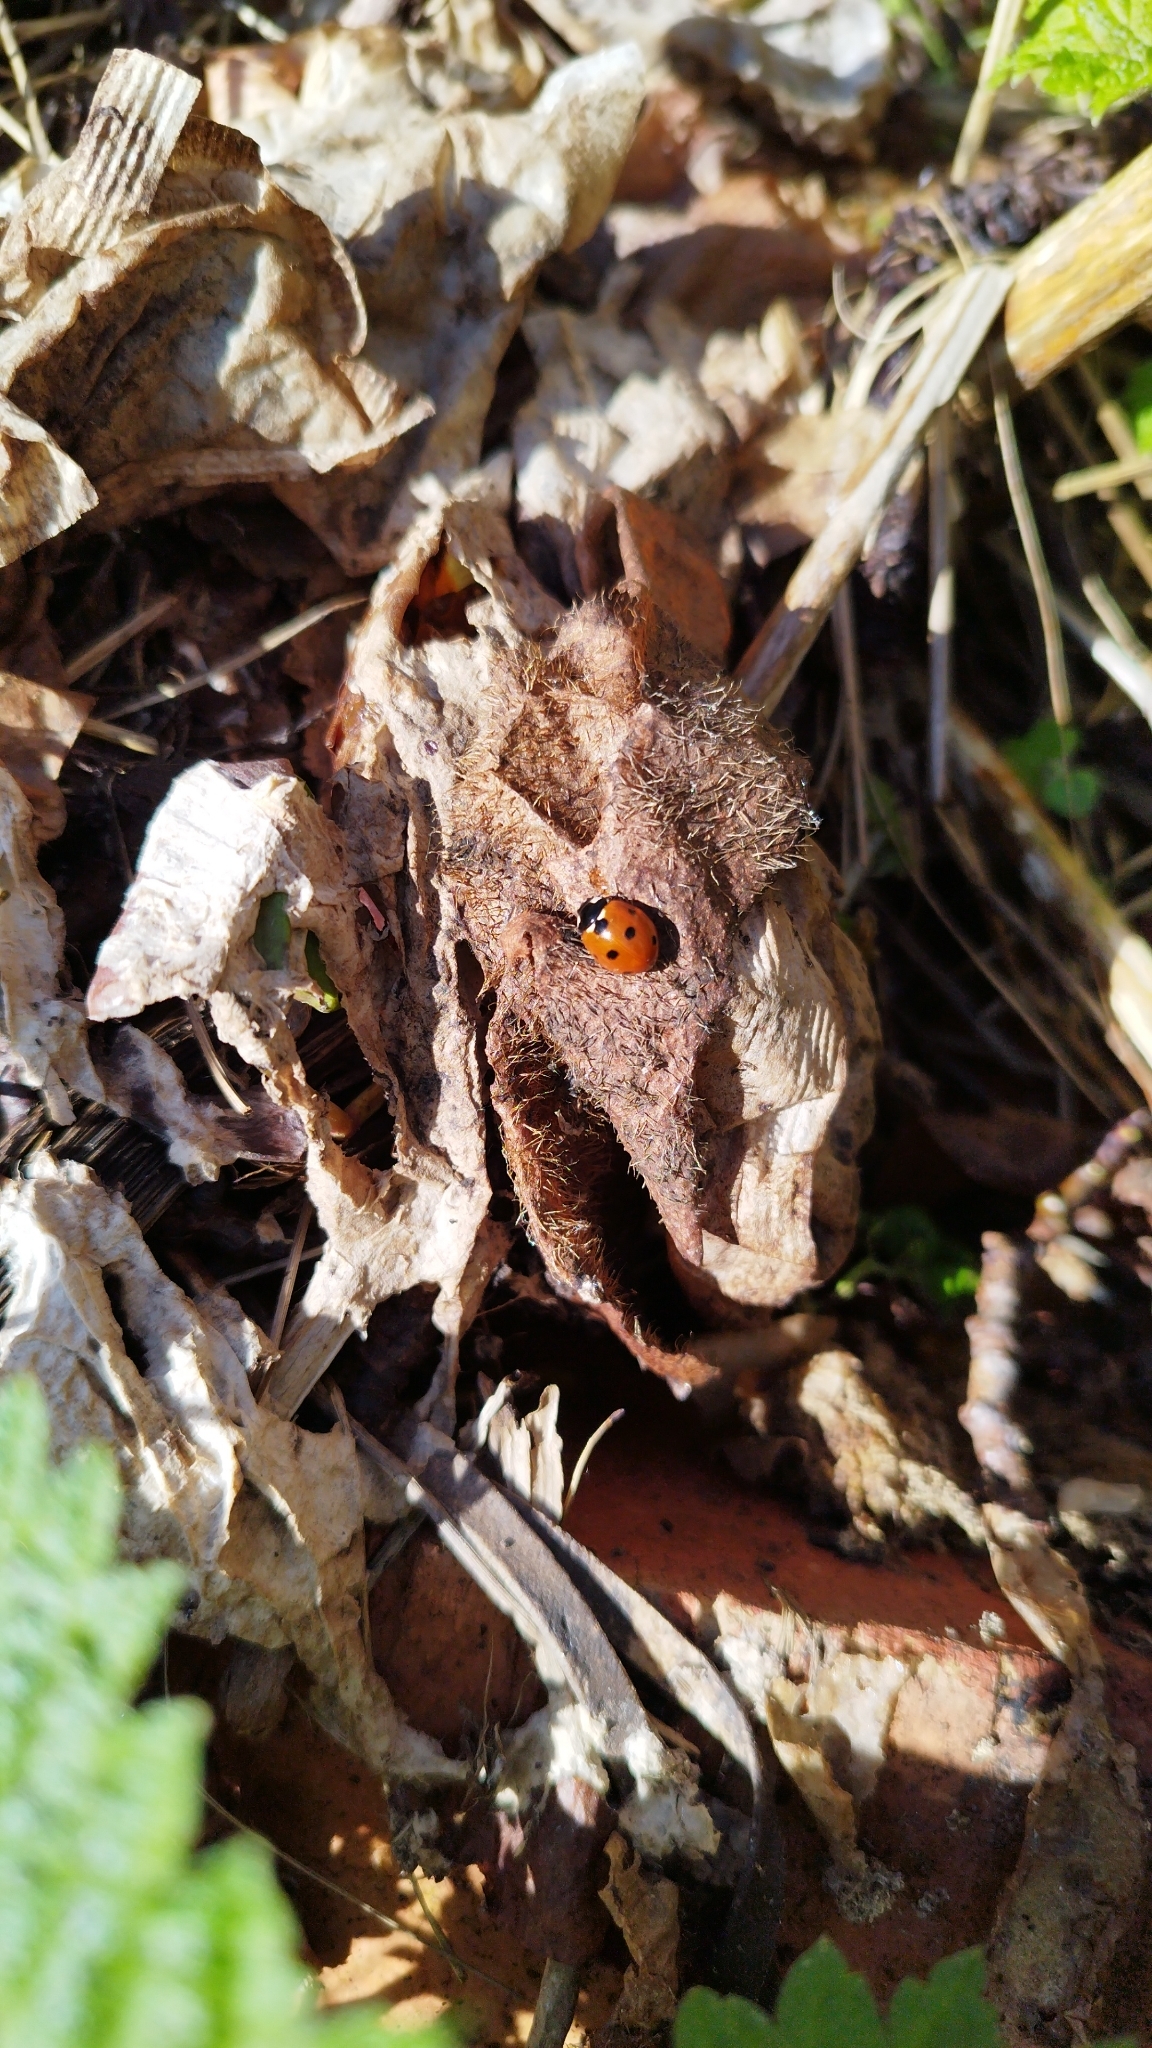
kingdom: Animalia
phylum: Arthropoda
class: Insecta
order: Coleoptera
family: Coccinellidae
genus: Coccinella
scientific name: Coccinella septempunctata
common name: Sevenspotted lady beetle
